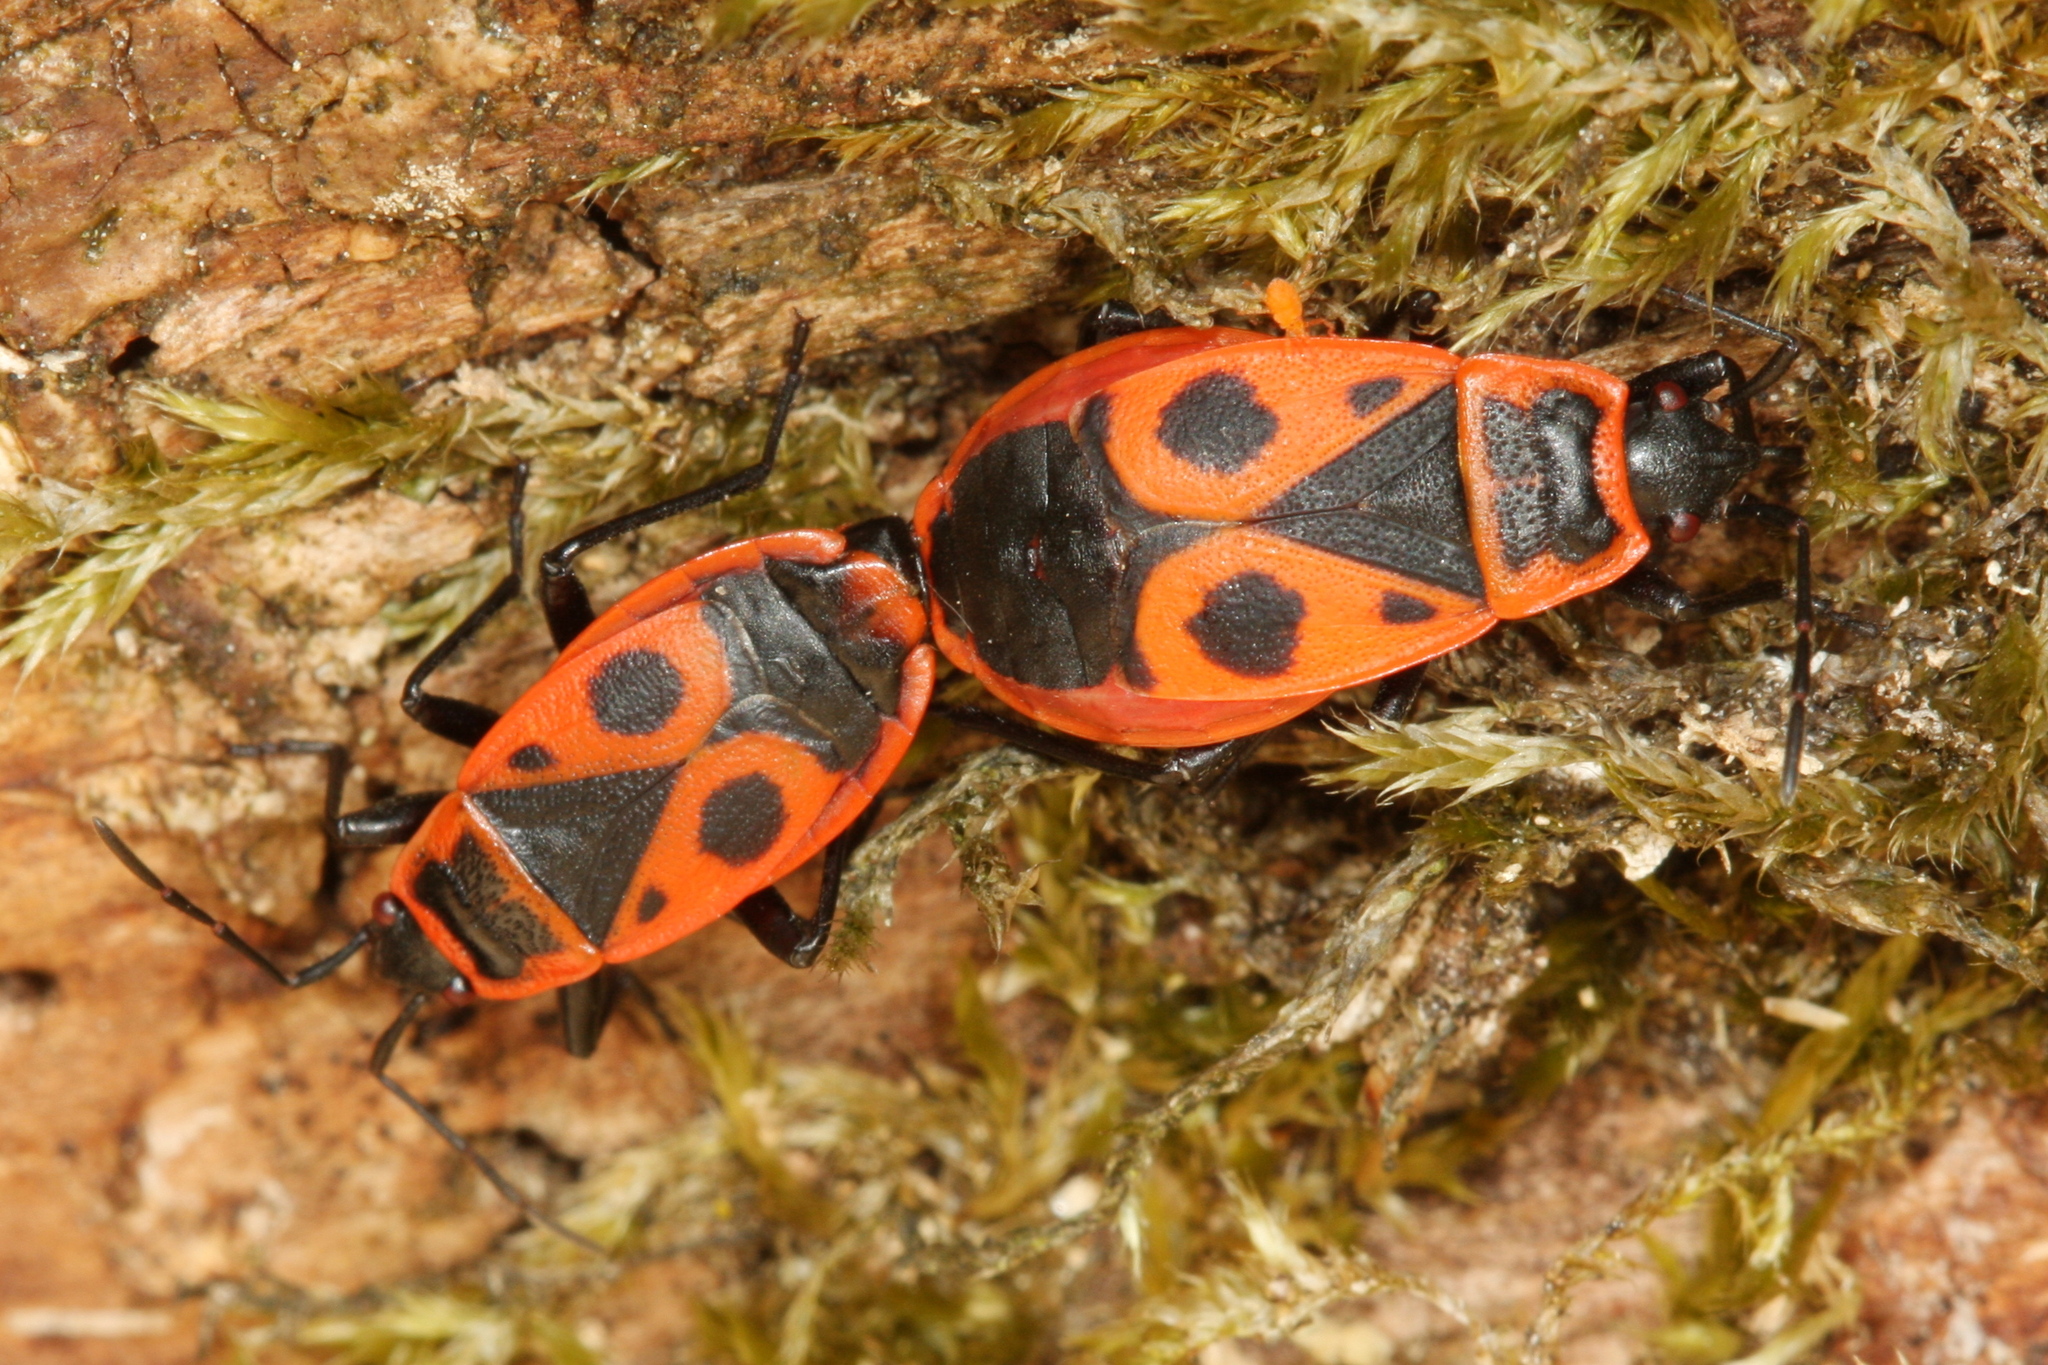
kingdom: Animalia
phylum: Arthropoda
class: Insecta
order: Hemiptera
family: Pyrrhocoridae
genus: Pyrrhocoris
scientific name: Pyrrhocoris apterus
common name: Firebug
